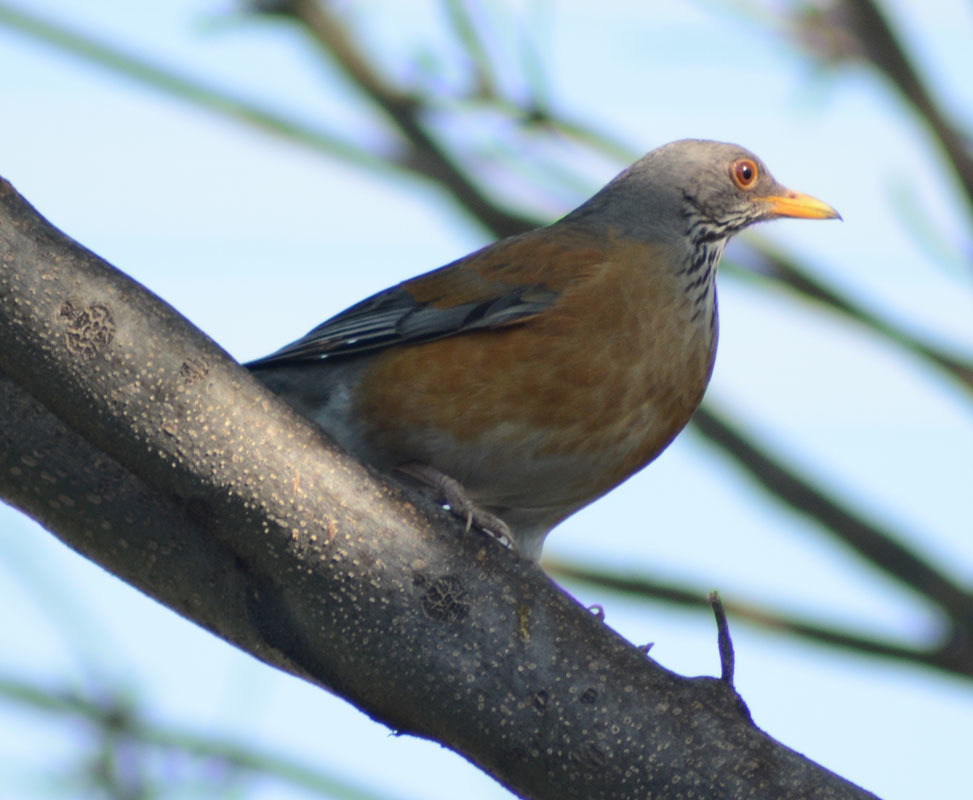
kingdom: Animalia
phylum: Chordata
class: Aves
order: Passeriformes
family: Turdidae
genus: Turdus
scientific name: Turdus rufopalliatus
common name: Rufous-backed robin
